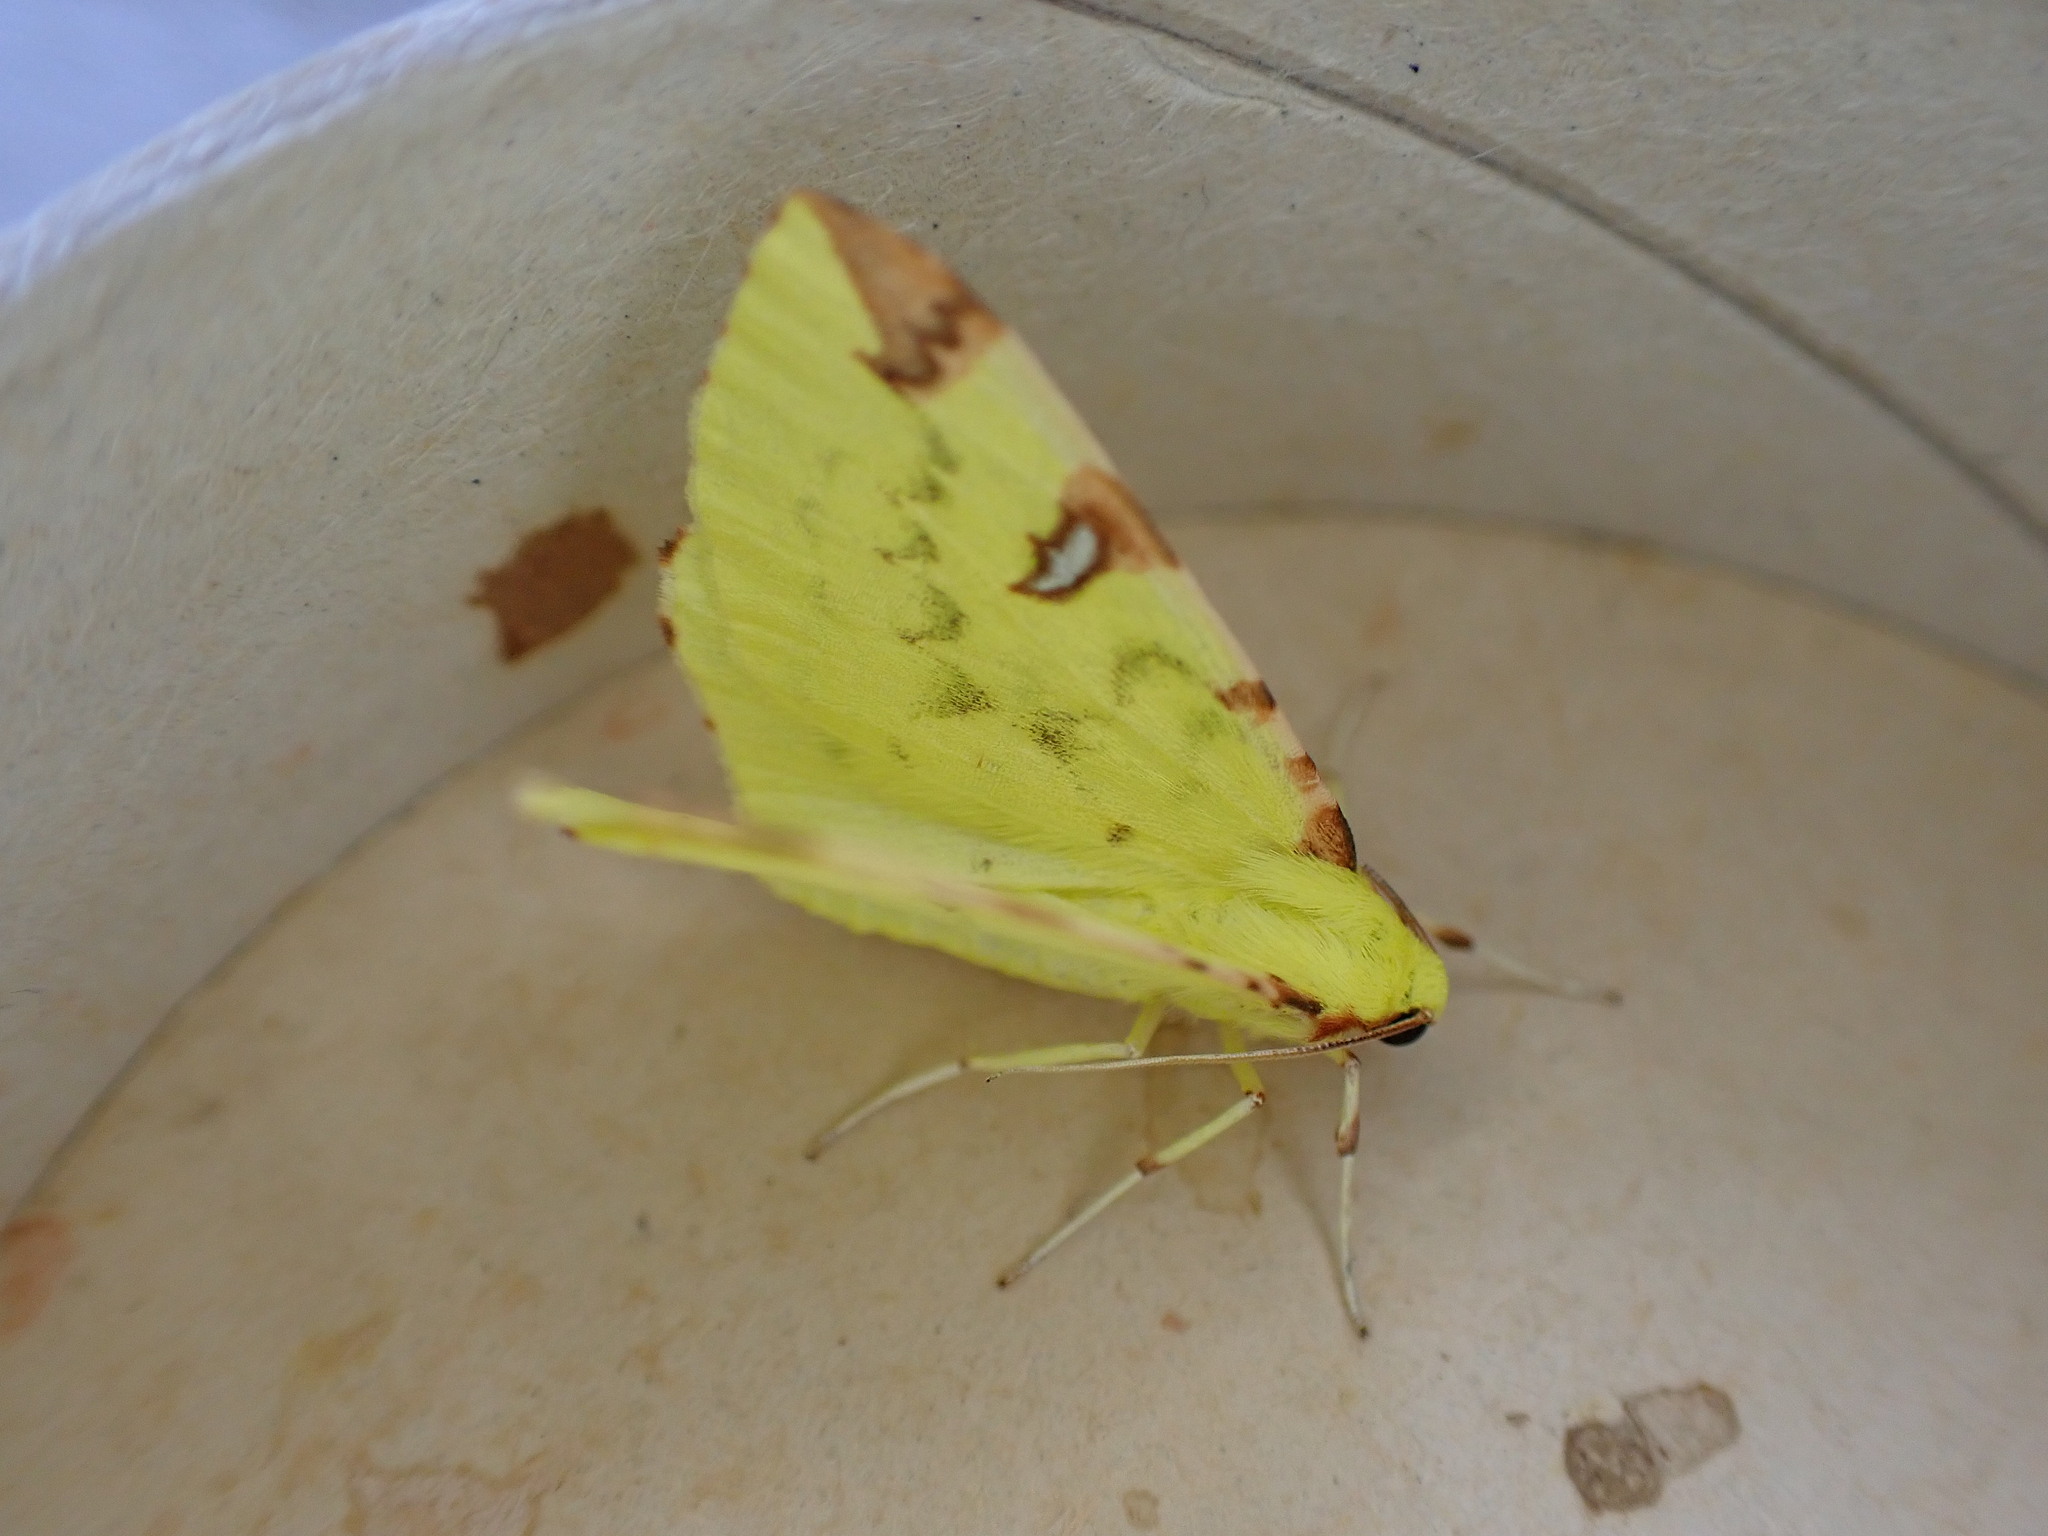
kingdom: Animalia
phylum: Arthropoda
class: Insecta
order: Lepidoptera
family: Geometridae
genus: Opisthograptis
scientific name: Opisthograptis luteolata
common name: Brimstone moth
